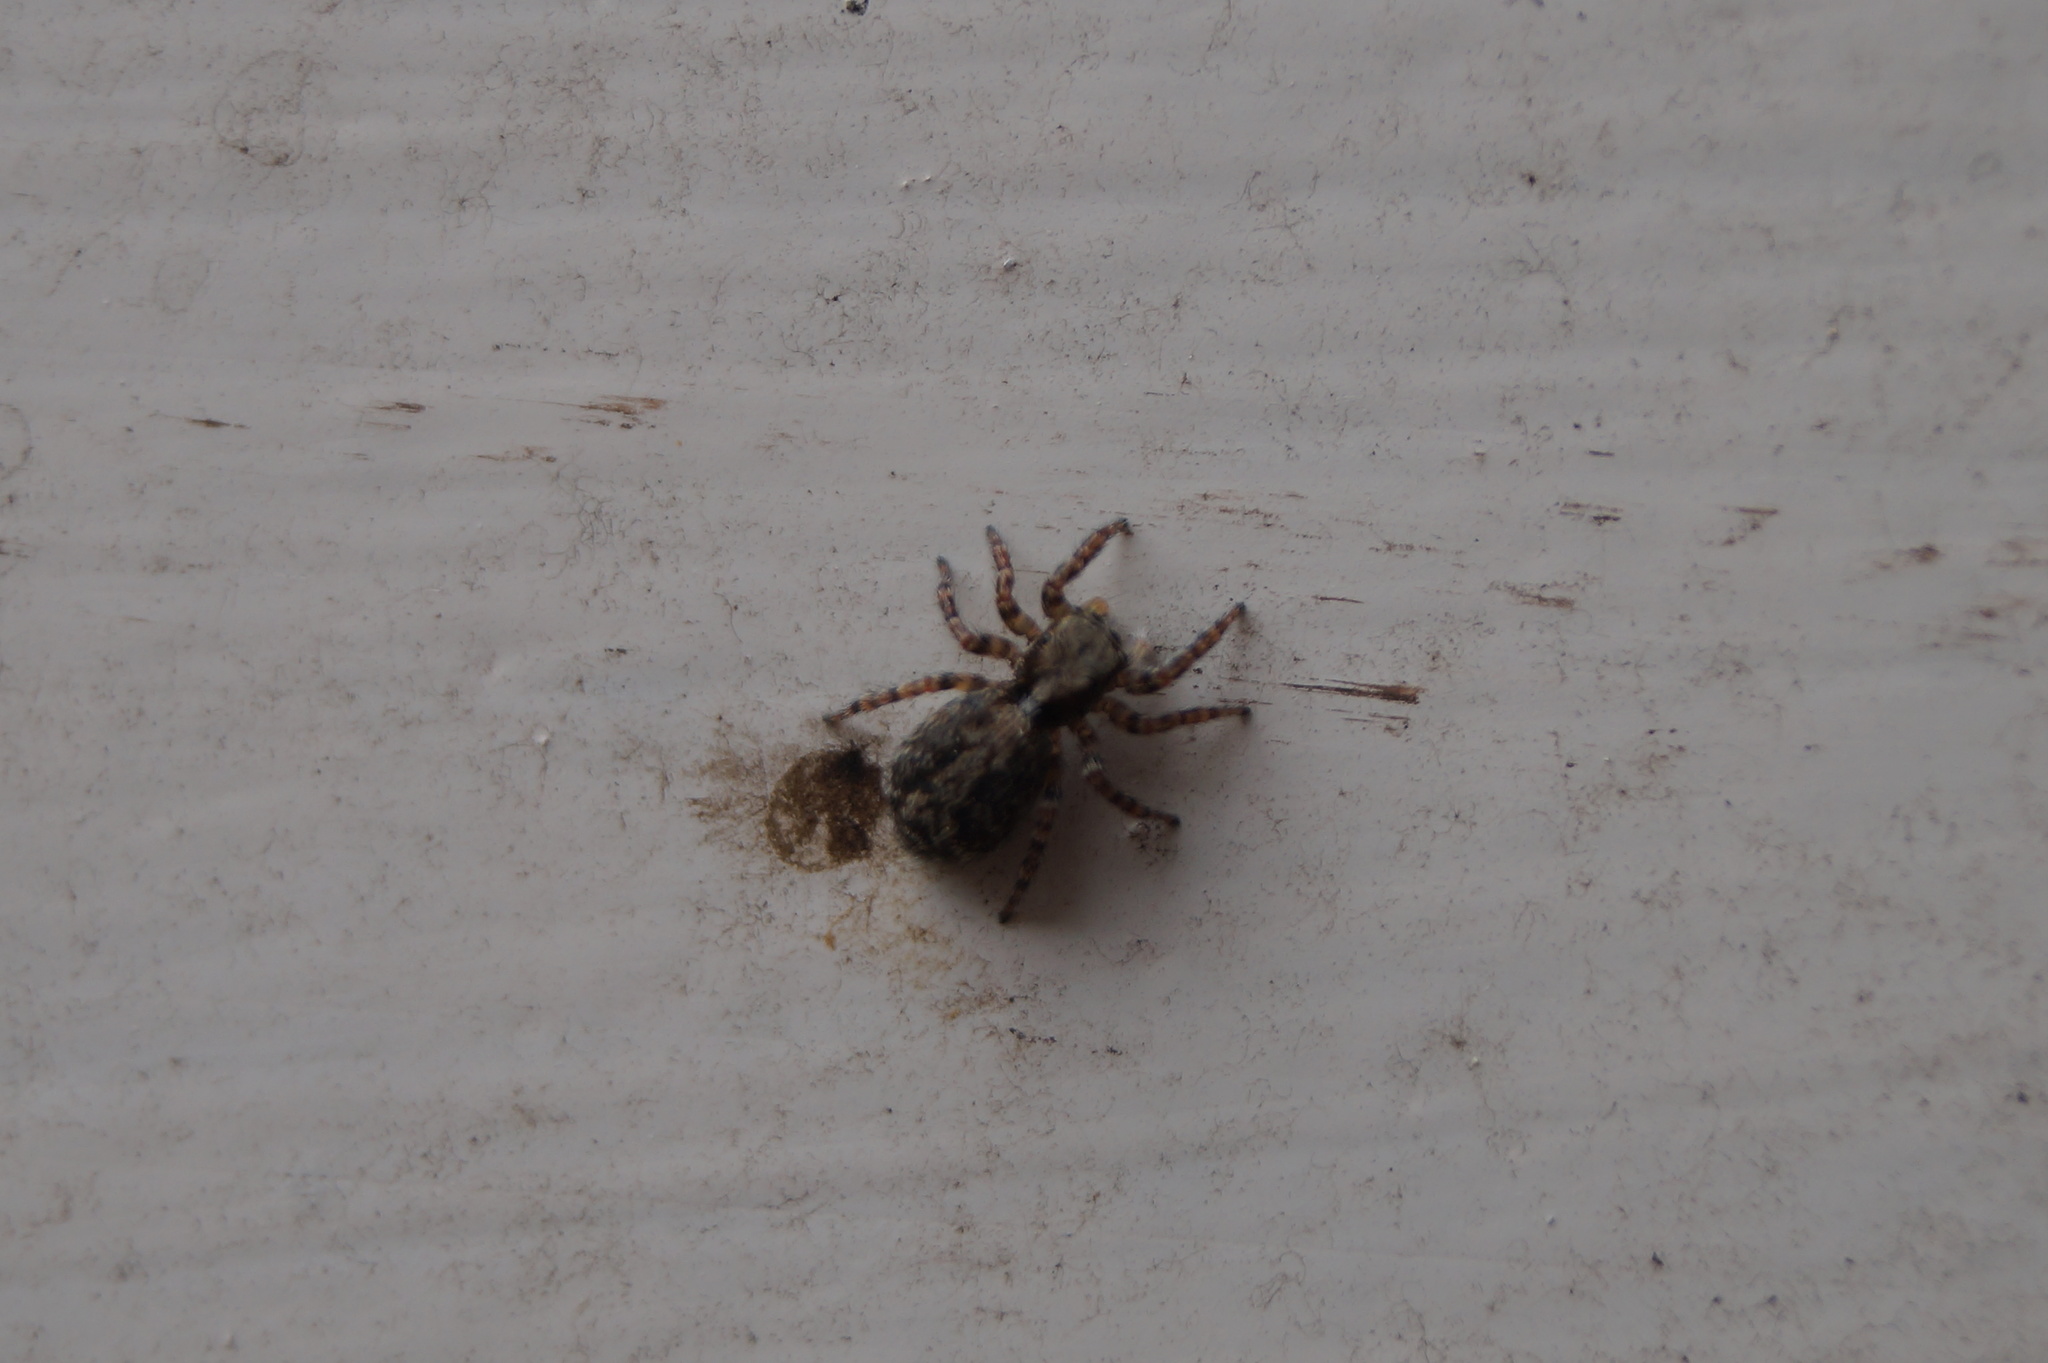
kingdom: Animalia
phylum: Arthropoda
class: Arachnida
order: Araneae
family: Salticidae
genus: Pseudeuophrys
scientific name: Pseudeuophrys lanigera
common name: Jumping spider
